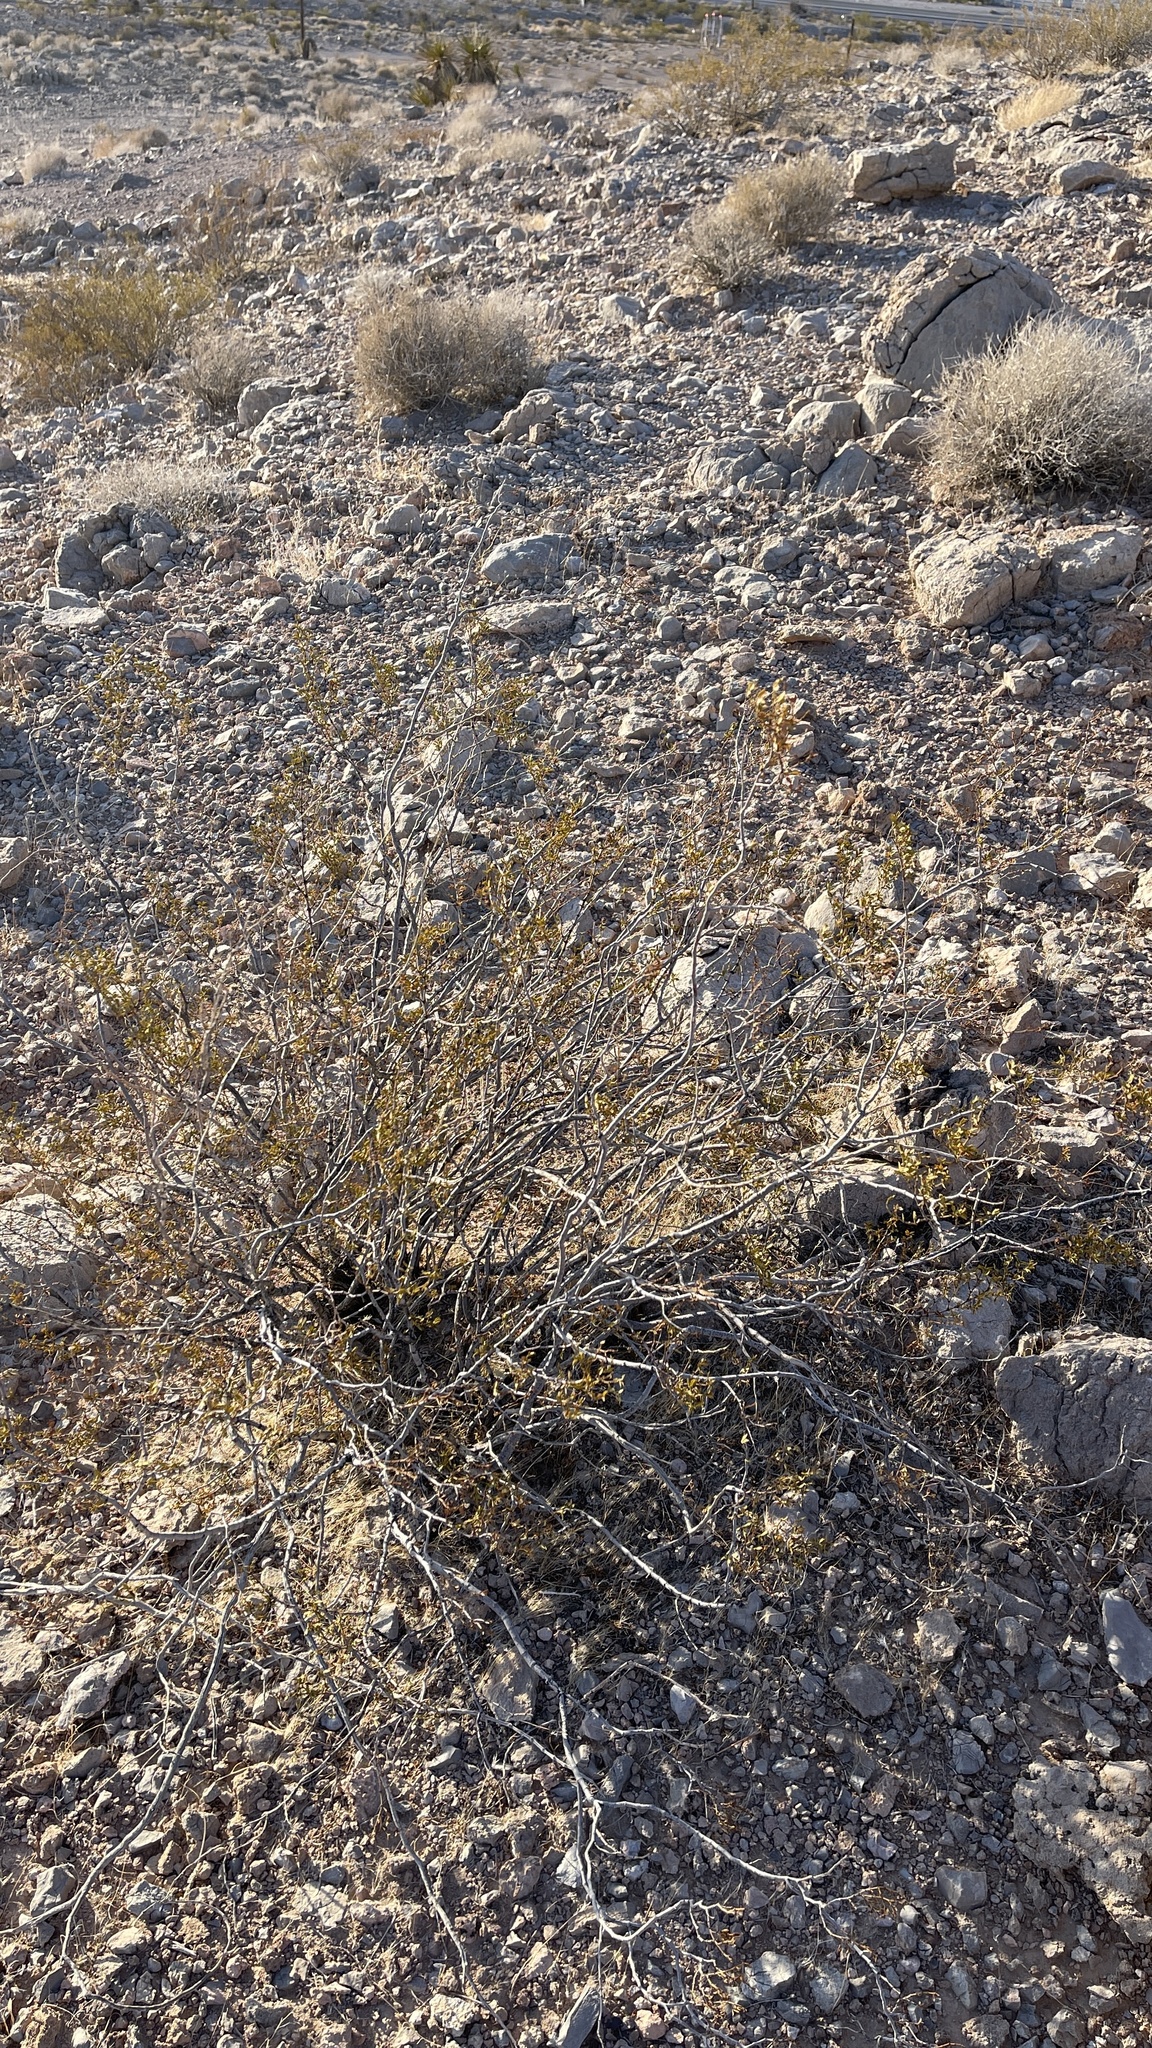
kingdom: Plantae
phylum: Tracheophyta
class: Magnoliopsida
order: Zygophyllales
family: Zygophyllaceae
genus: Larrea
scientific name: Larrea tridentata
